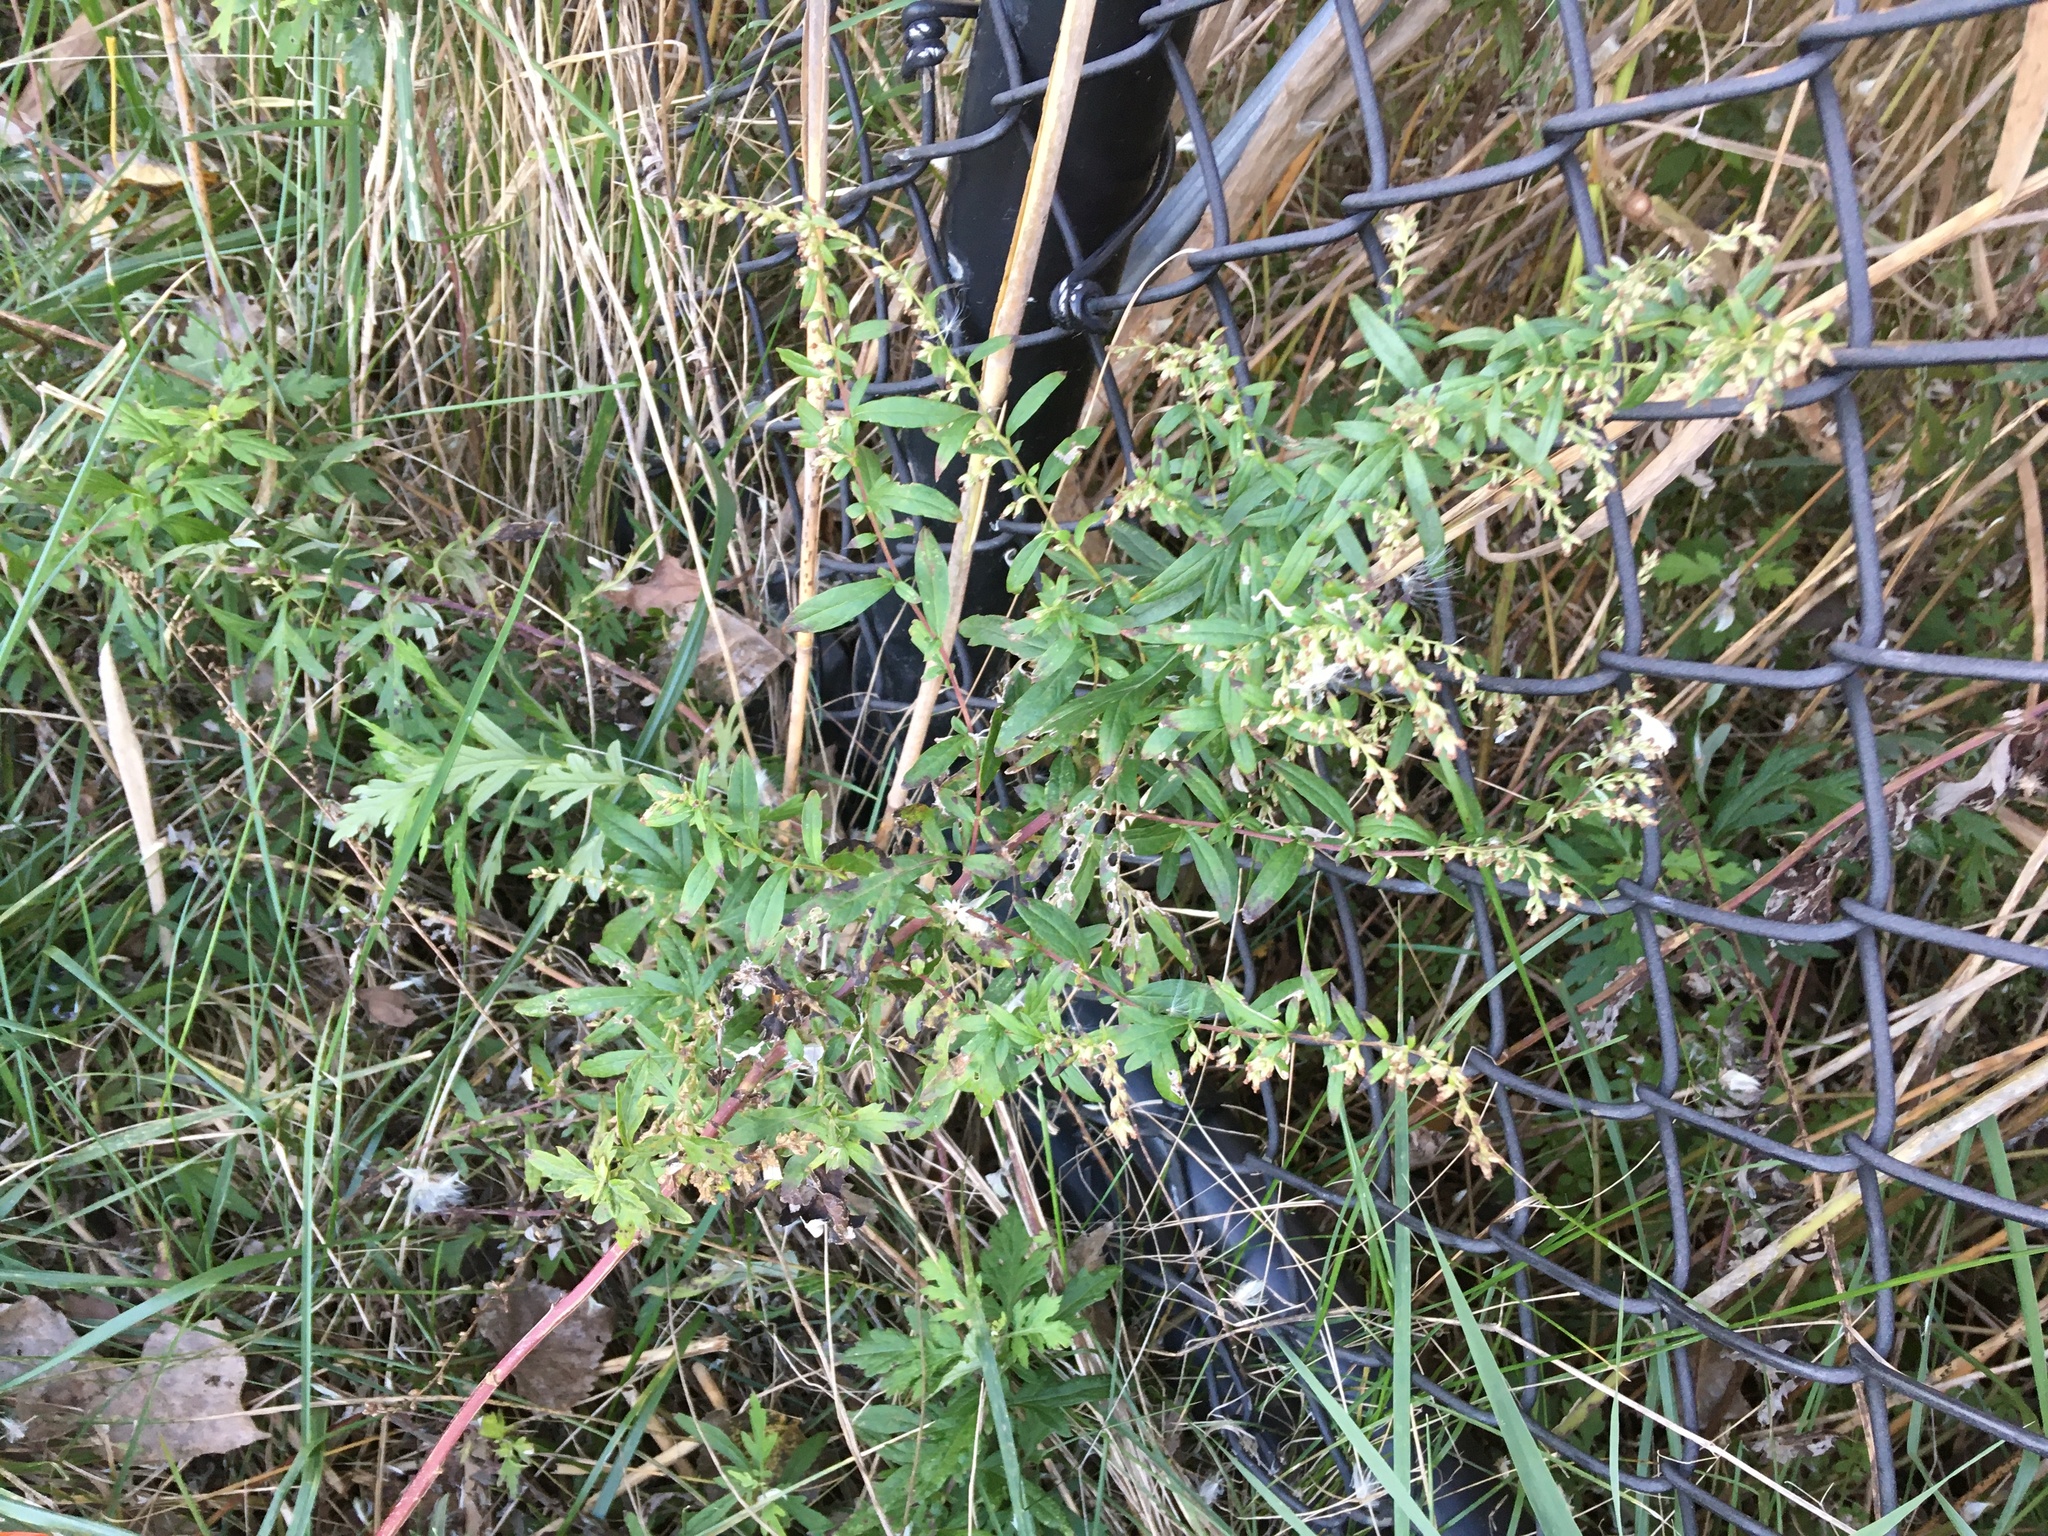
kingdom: Plantae
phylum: Tracheophyta
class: Magnoliopsida
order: Asterales
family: Asteraceae
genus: Artemisia
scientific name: Artemisia vulgaris
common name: Mugwort
